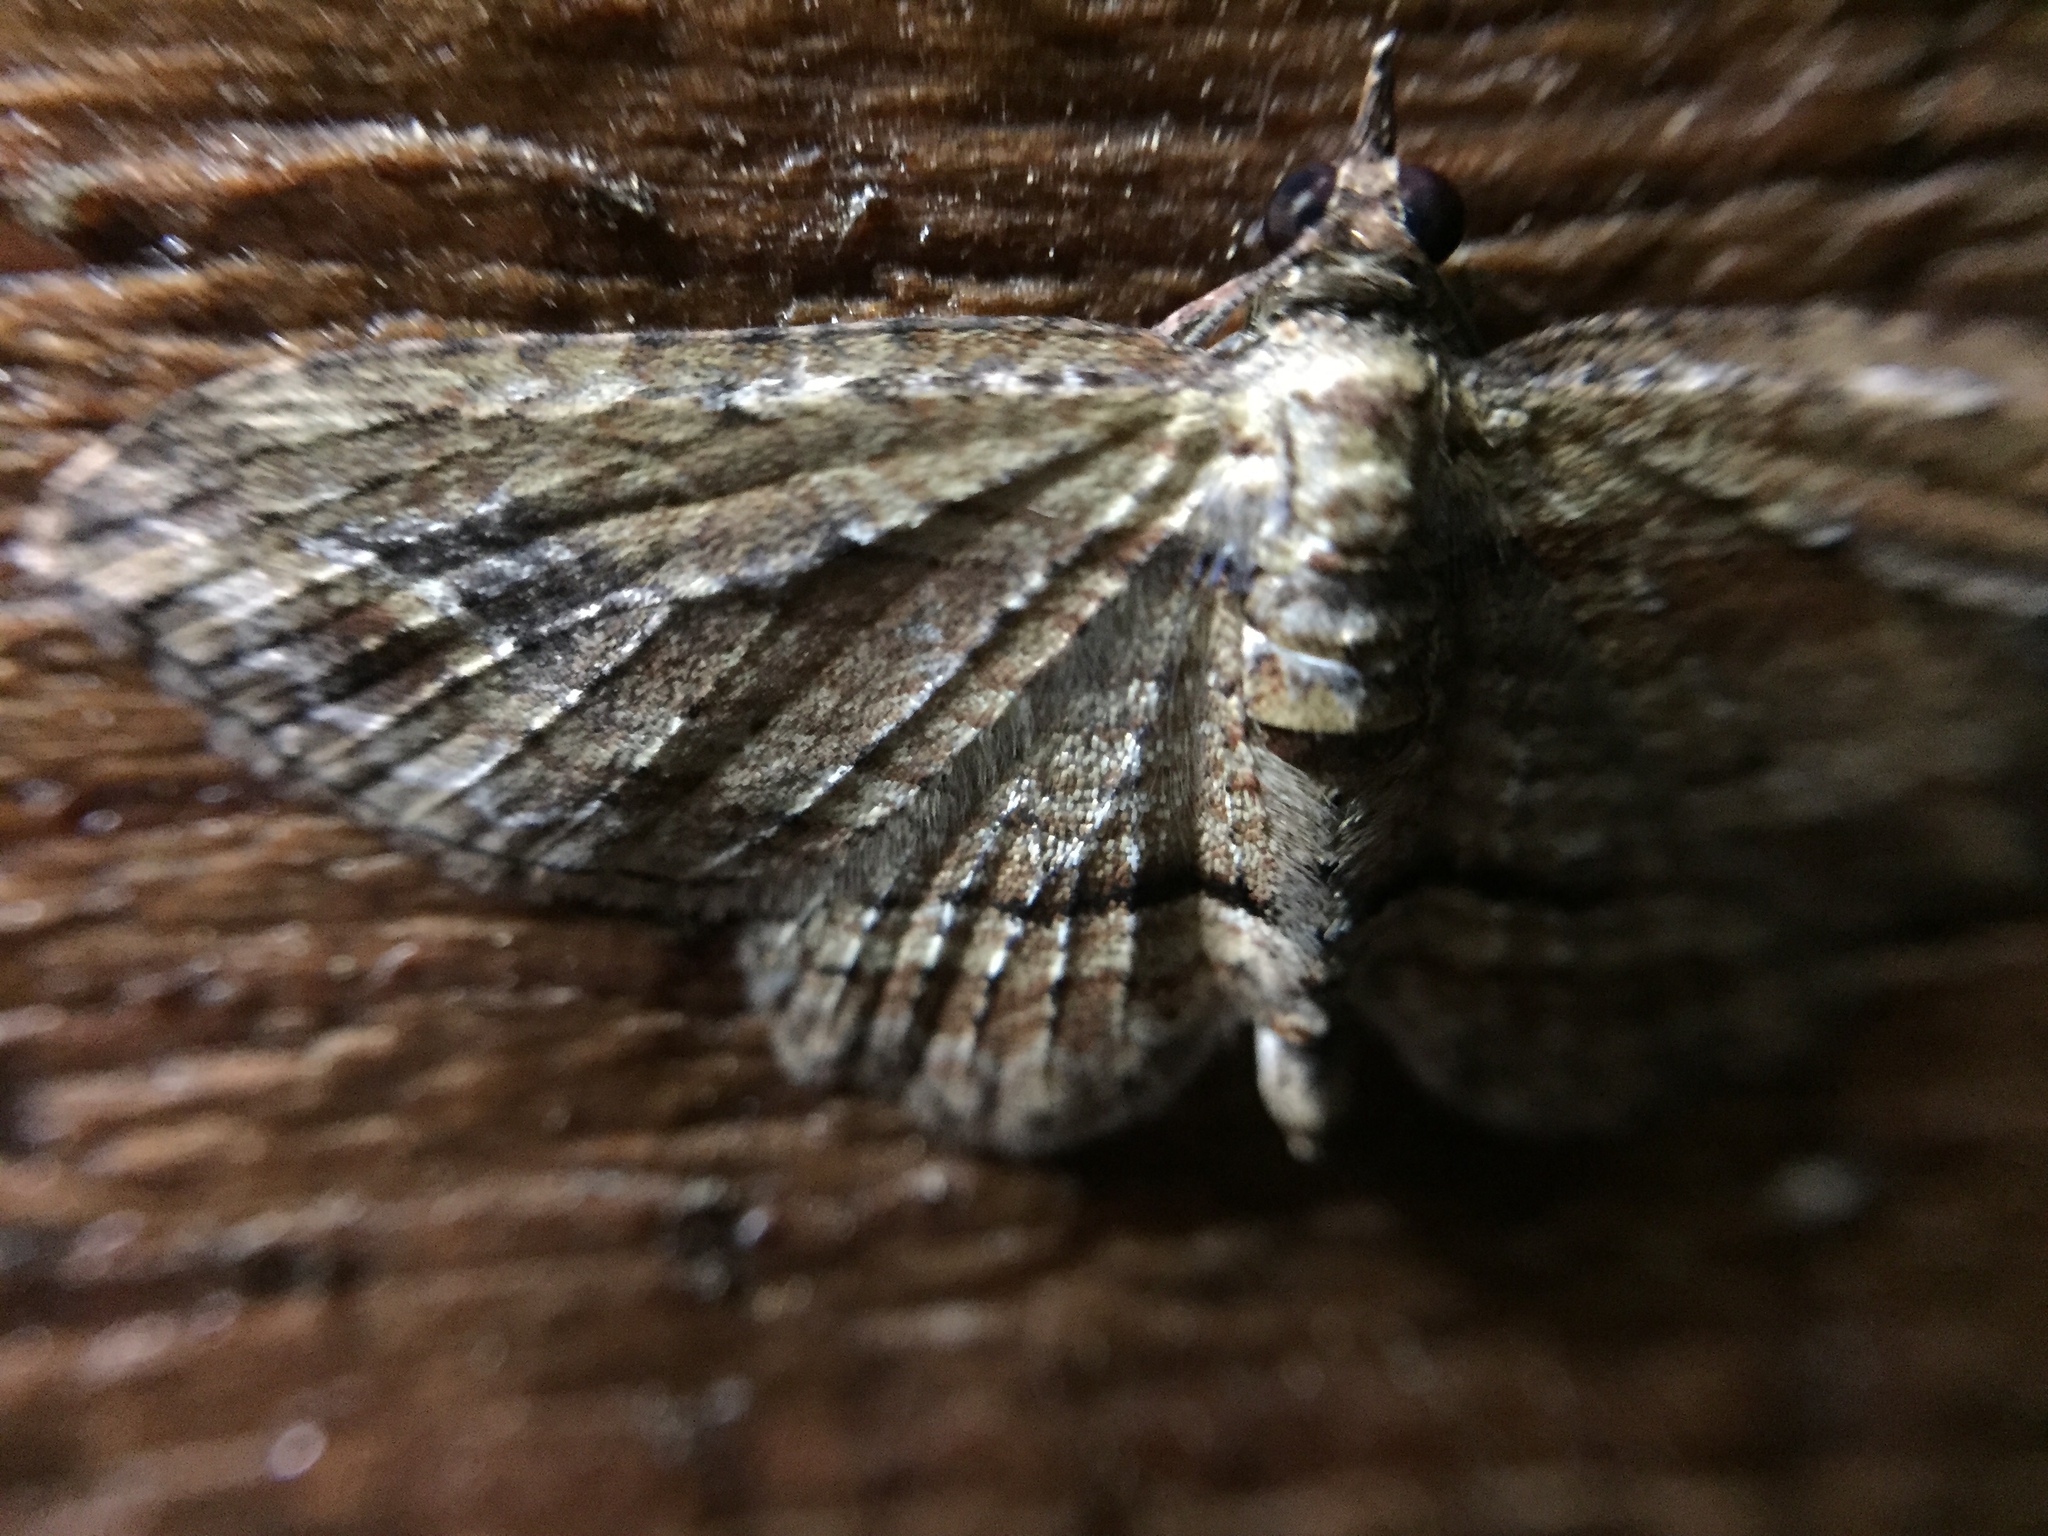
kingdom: Animalia
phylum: Arthropoda
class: Insecta
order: Lepidoptera
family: Geometridae
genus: Chloroclystis
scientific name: Chloroclystis filata
